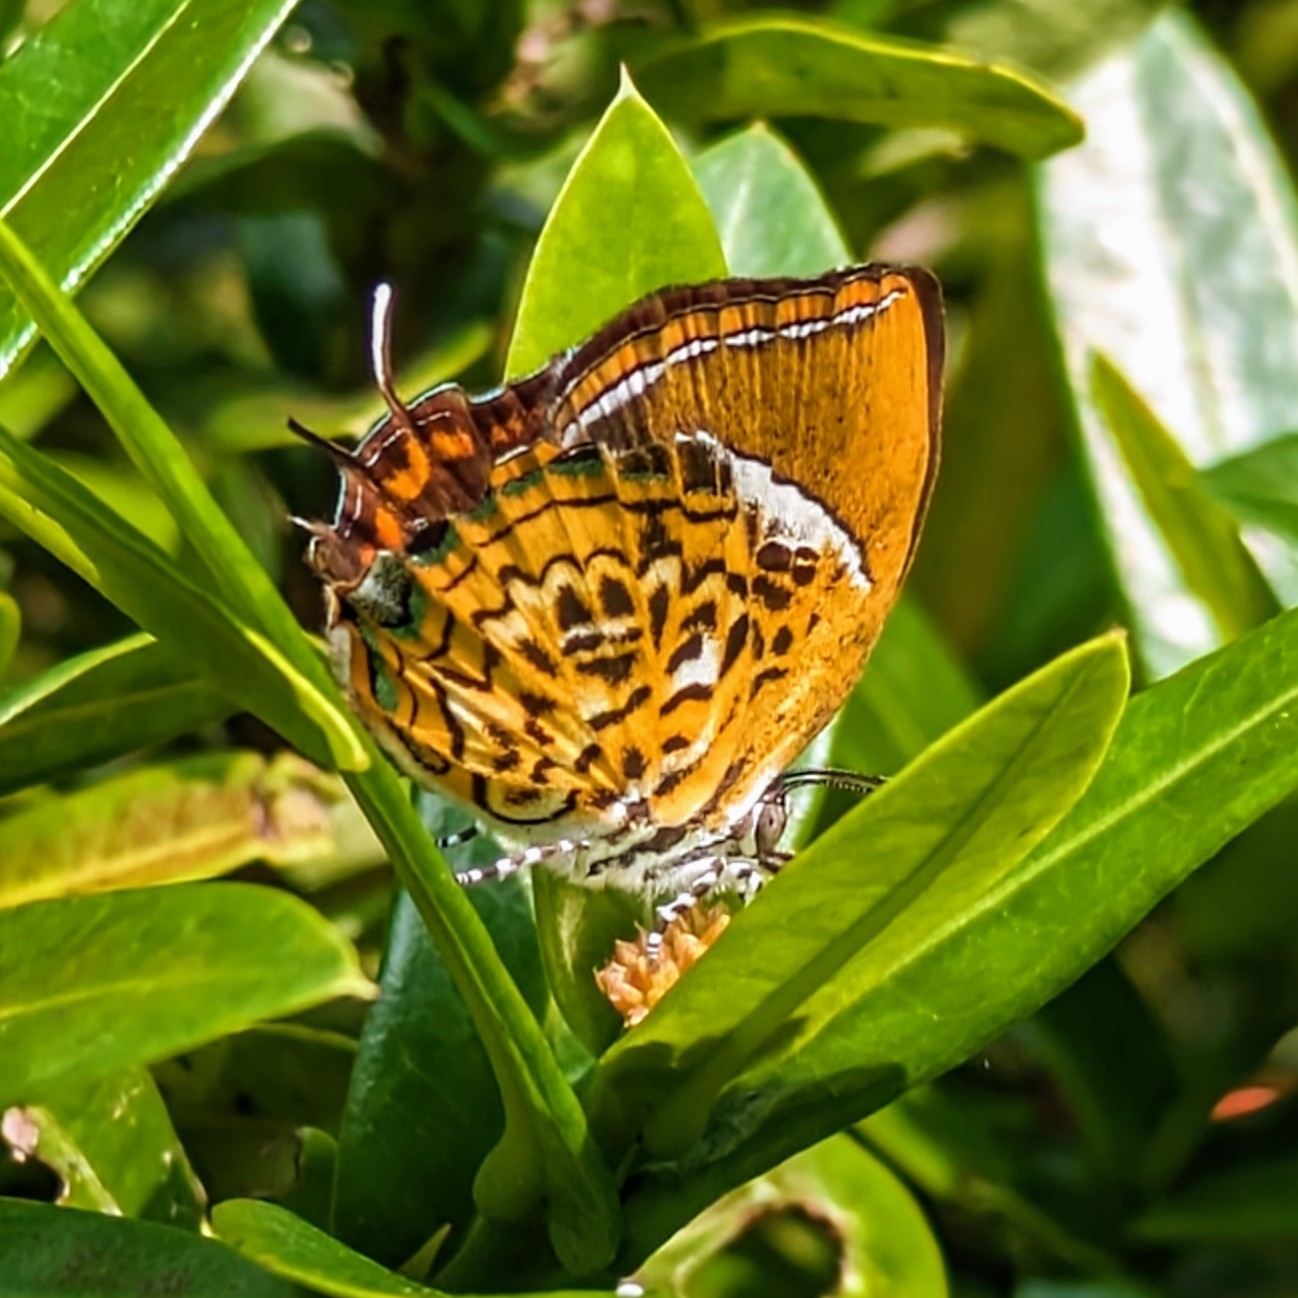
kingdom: Animalia
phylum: Arthropoda
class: Insecta
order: Lepidoptera
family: Lycaenidae
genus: Rathinda
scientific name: Rathinda amor
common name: Monkey puzzle
